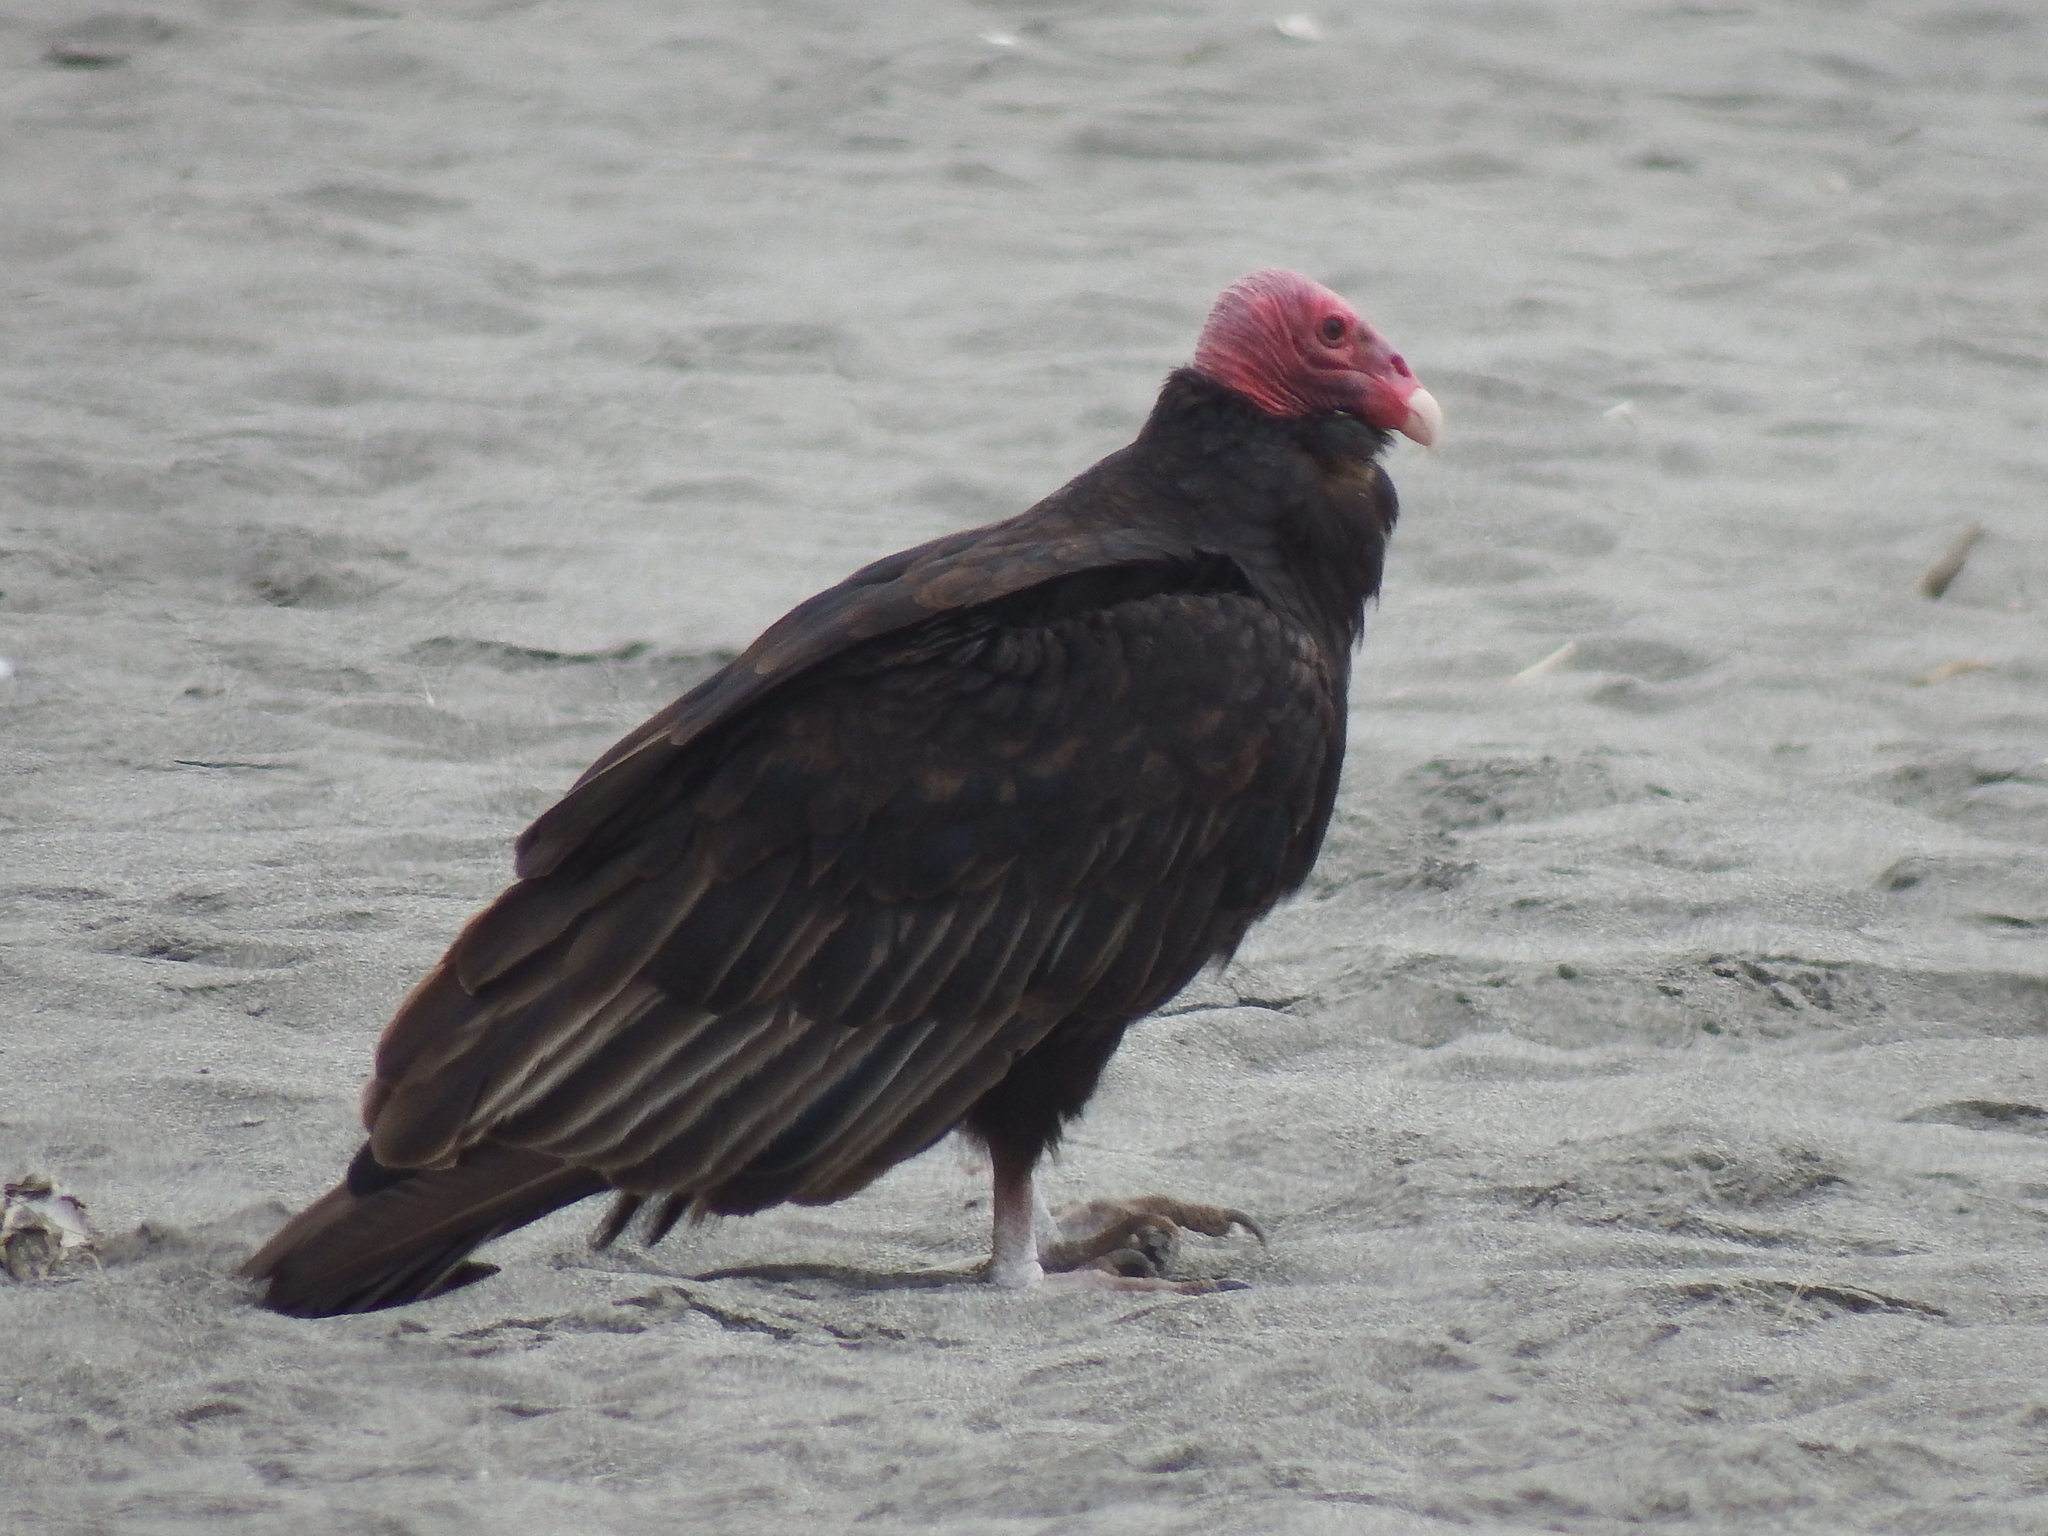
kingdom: Animalia
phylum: Chordata
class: Aves
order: Accipitriformes
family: Cathartidae
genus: Cathartes
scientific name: Cathartes aura
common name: Turkey vulture
